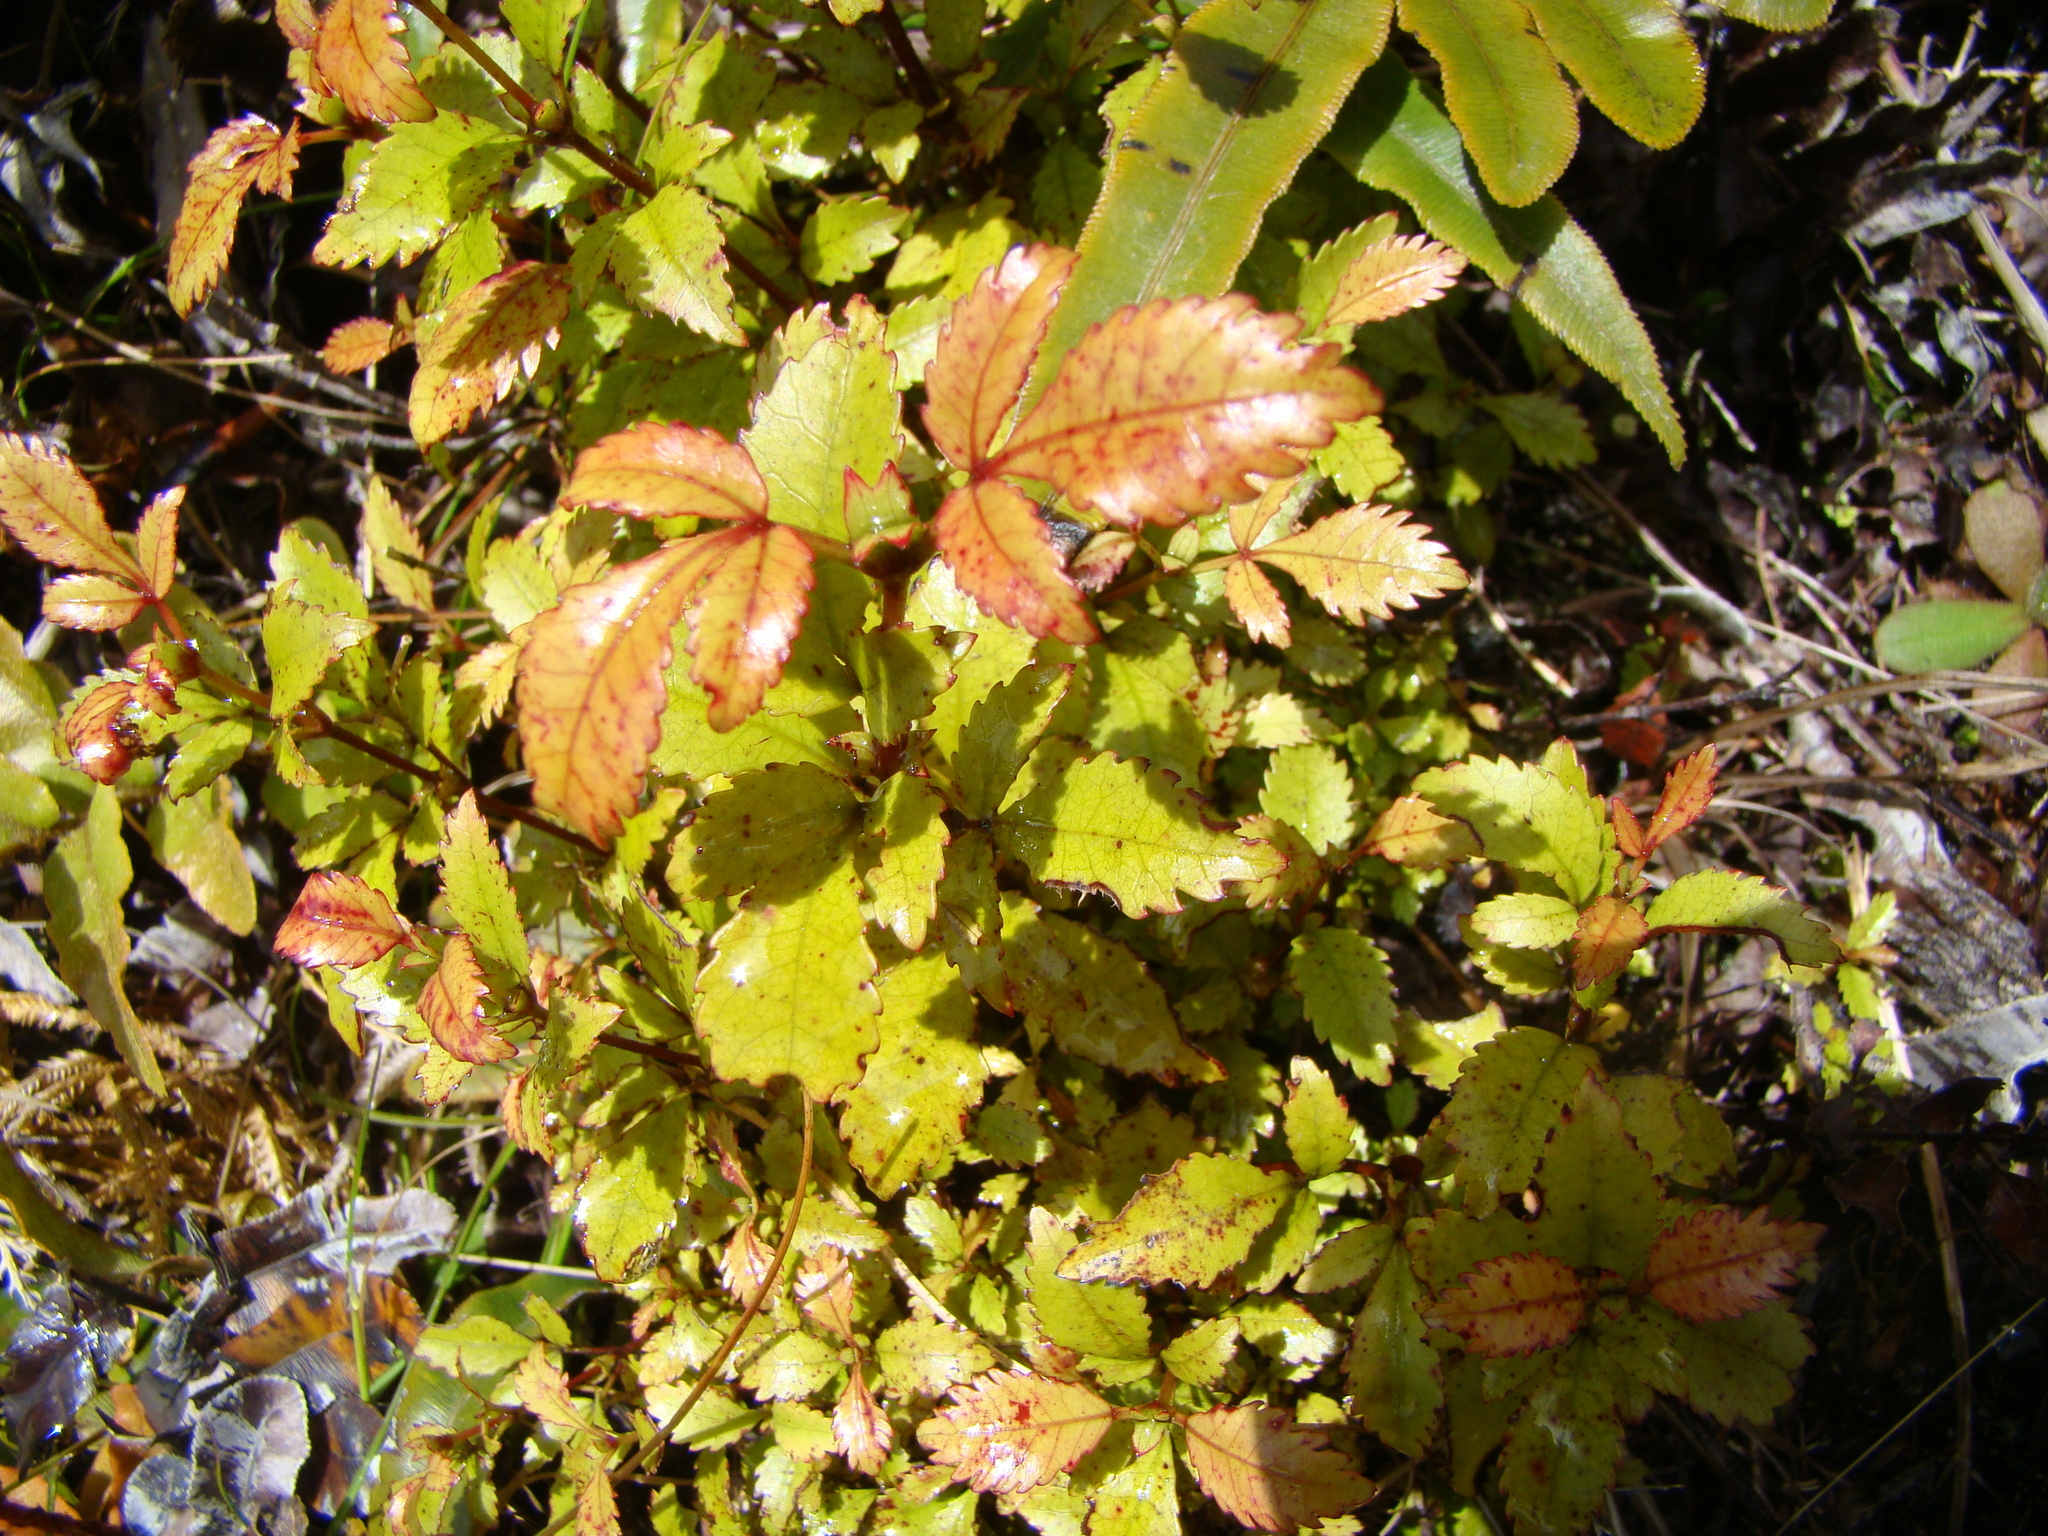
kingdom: Plantae
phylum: Tracheophyta
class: Magnoliopsida
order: Oxalidales
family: Cunoniaceae
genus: Pterophylla
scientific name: Pterophylla racemosa
